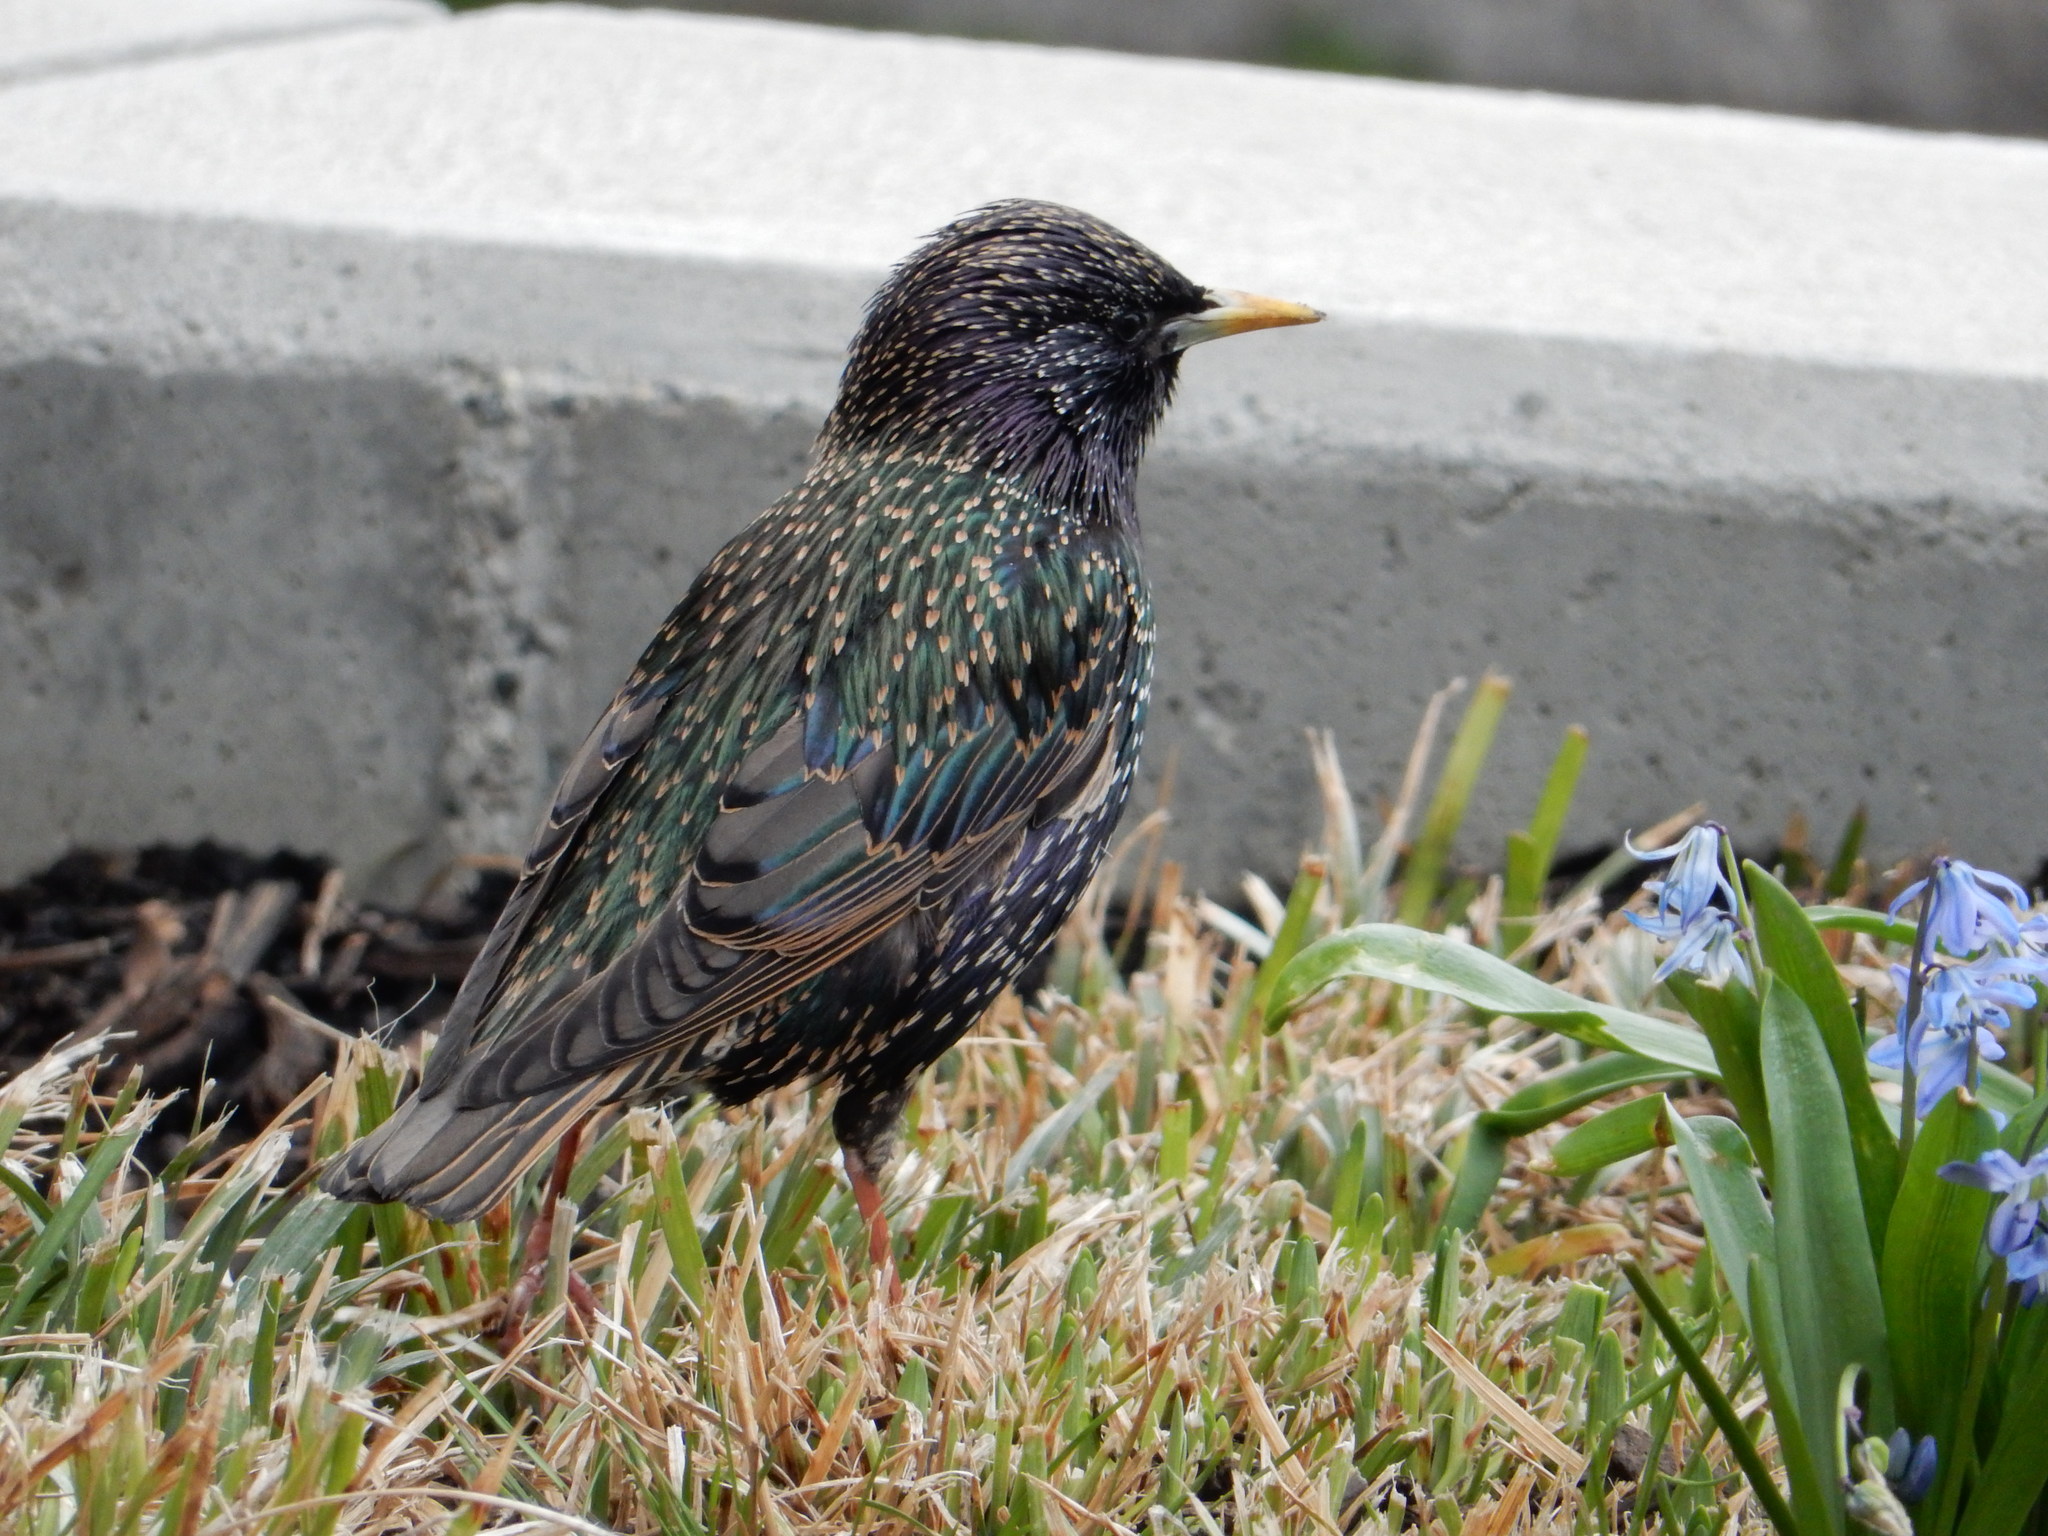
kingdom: Animalia
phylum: Chordata
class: Aves
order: Passeriformes
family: Sturnidae
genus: Sturnus
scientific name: Sturnus vulgaris
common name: Common starling
